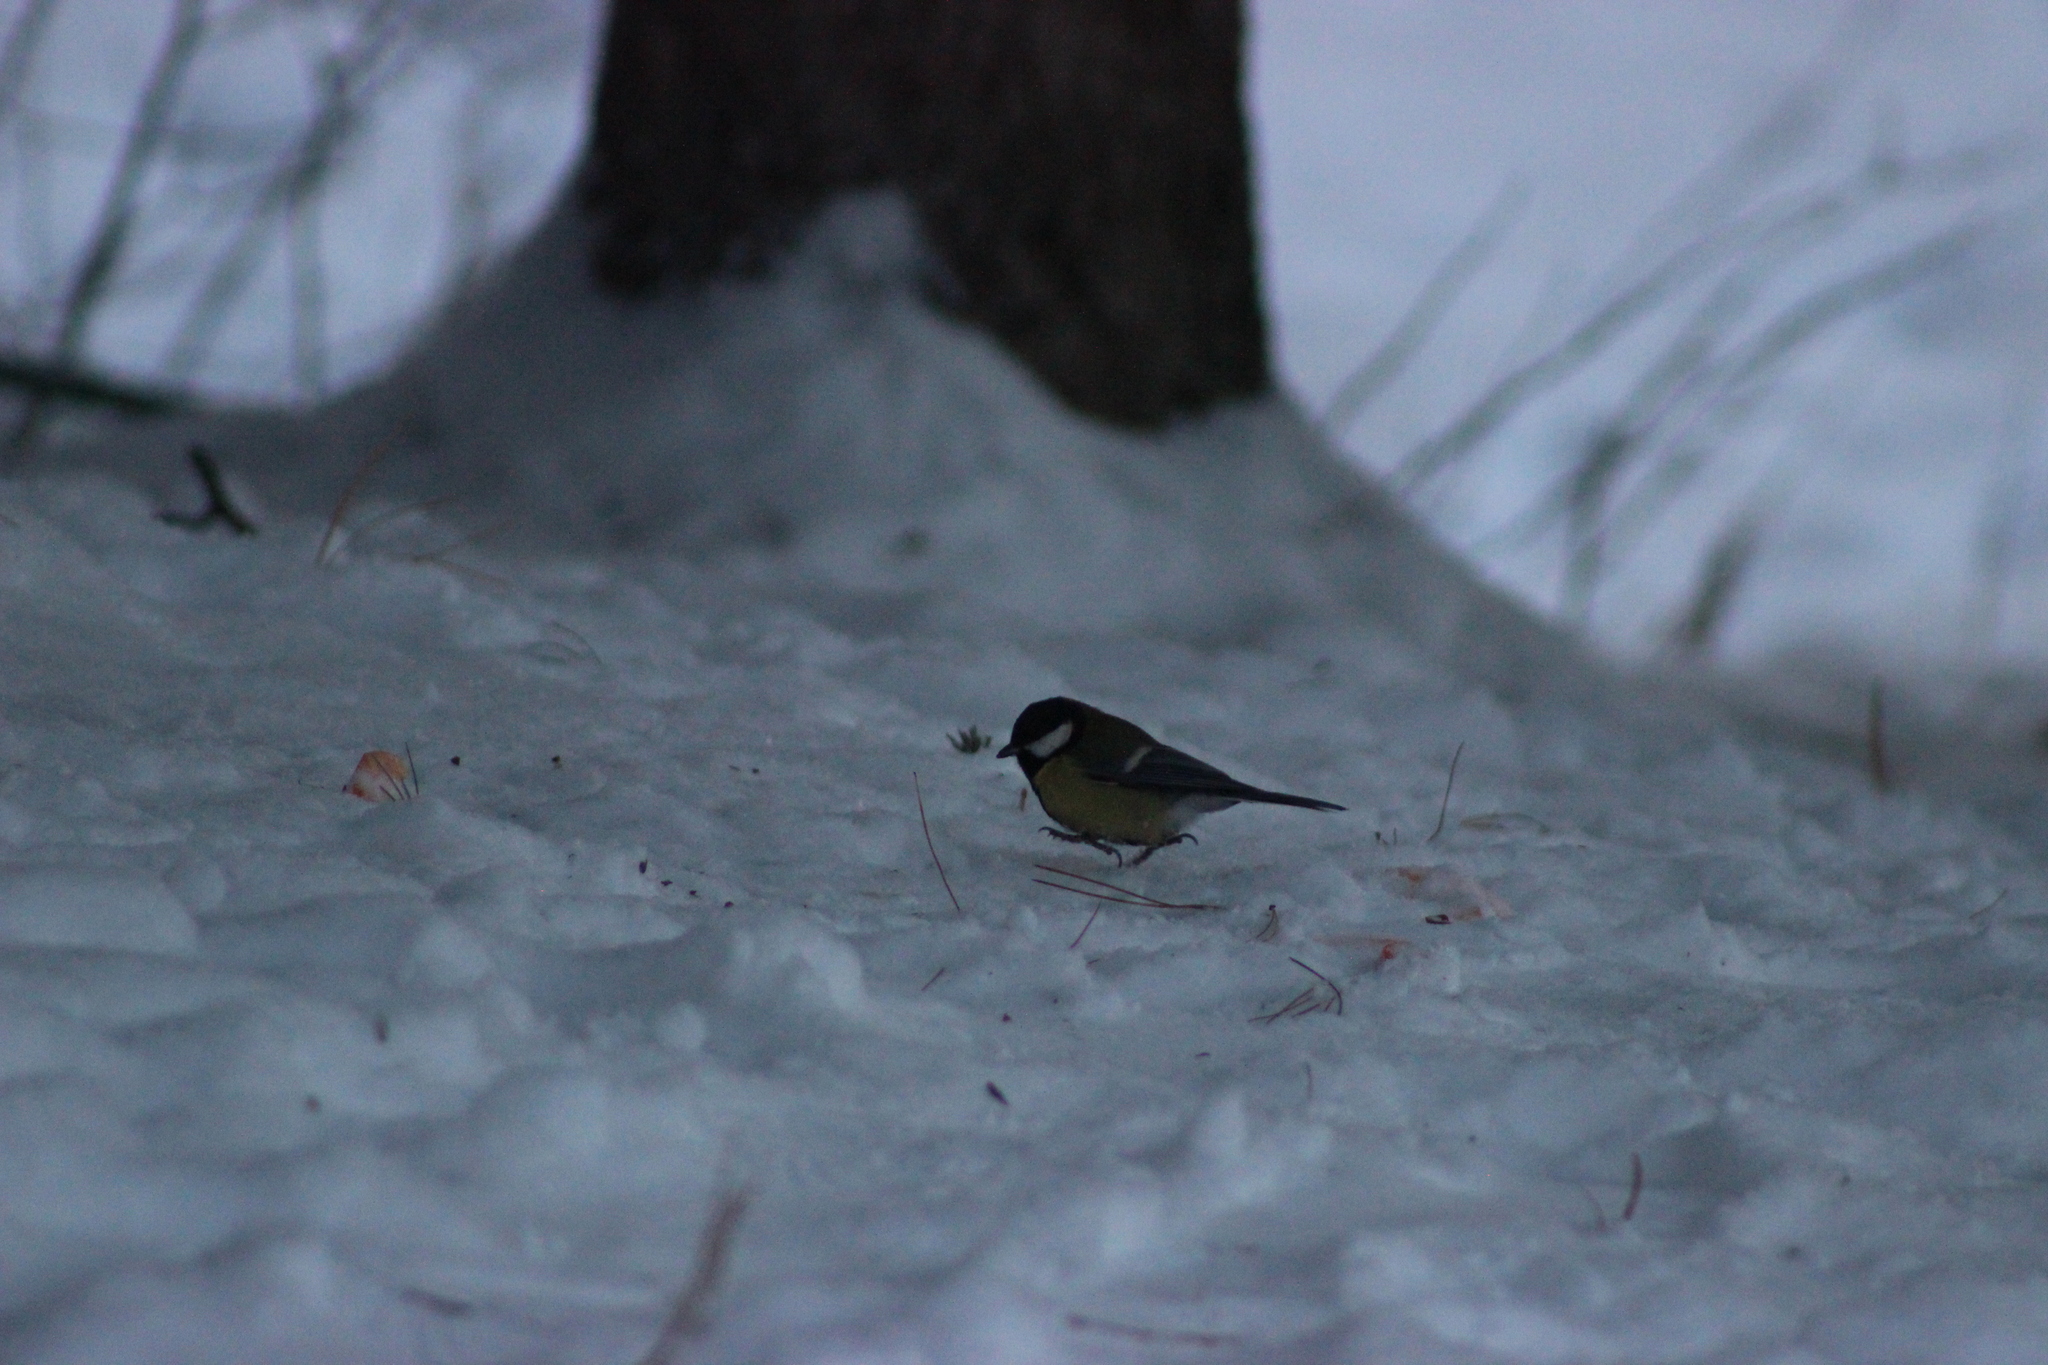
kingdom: Animalia
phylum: Chordata
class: Aves
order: Passeriformes
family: Paridae
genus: Parus
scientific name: Parus major
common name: Great tit
